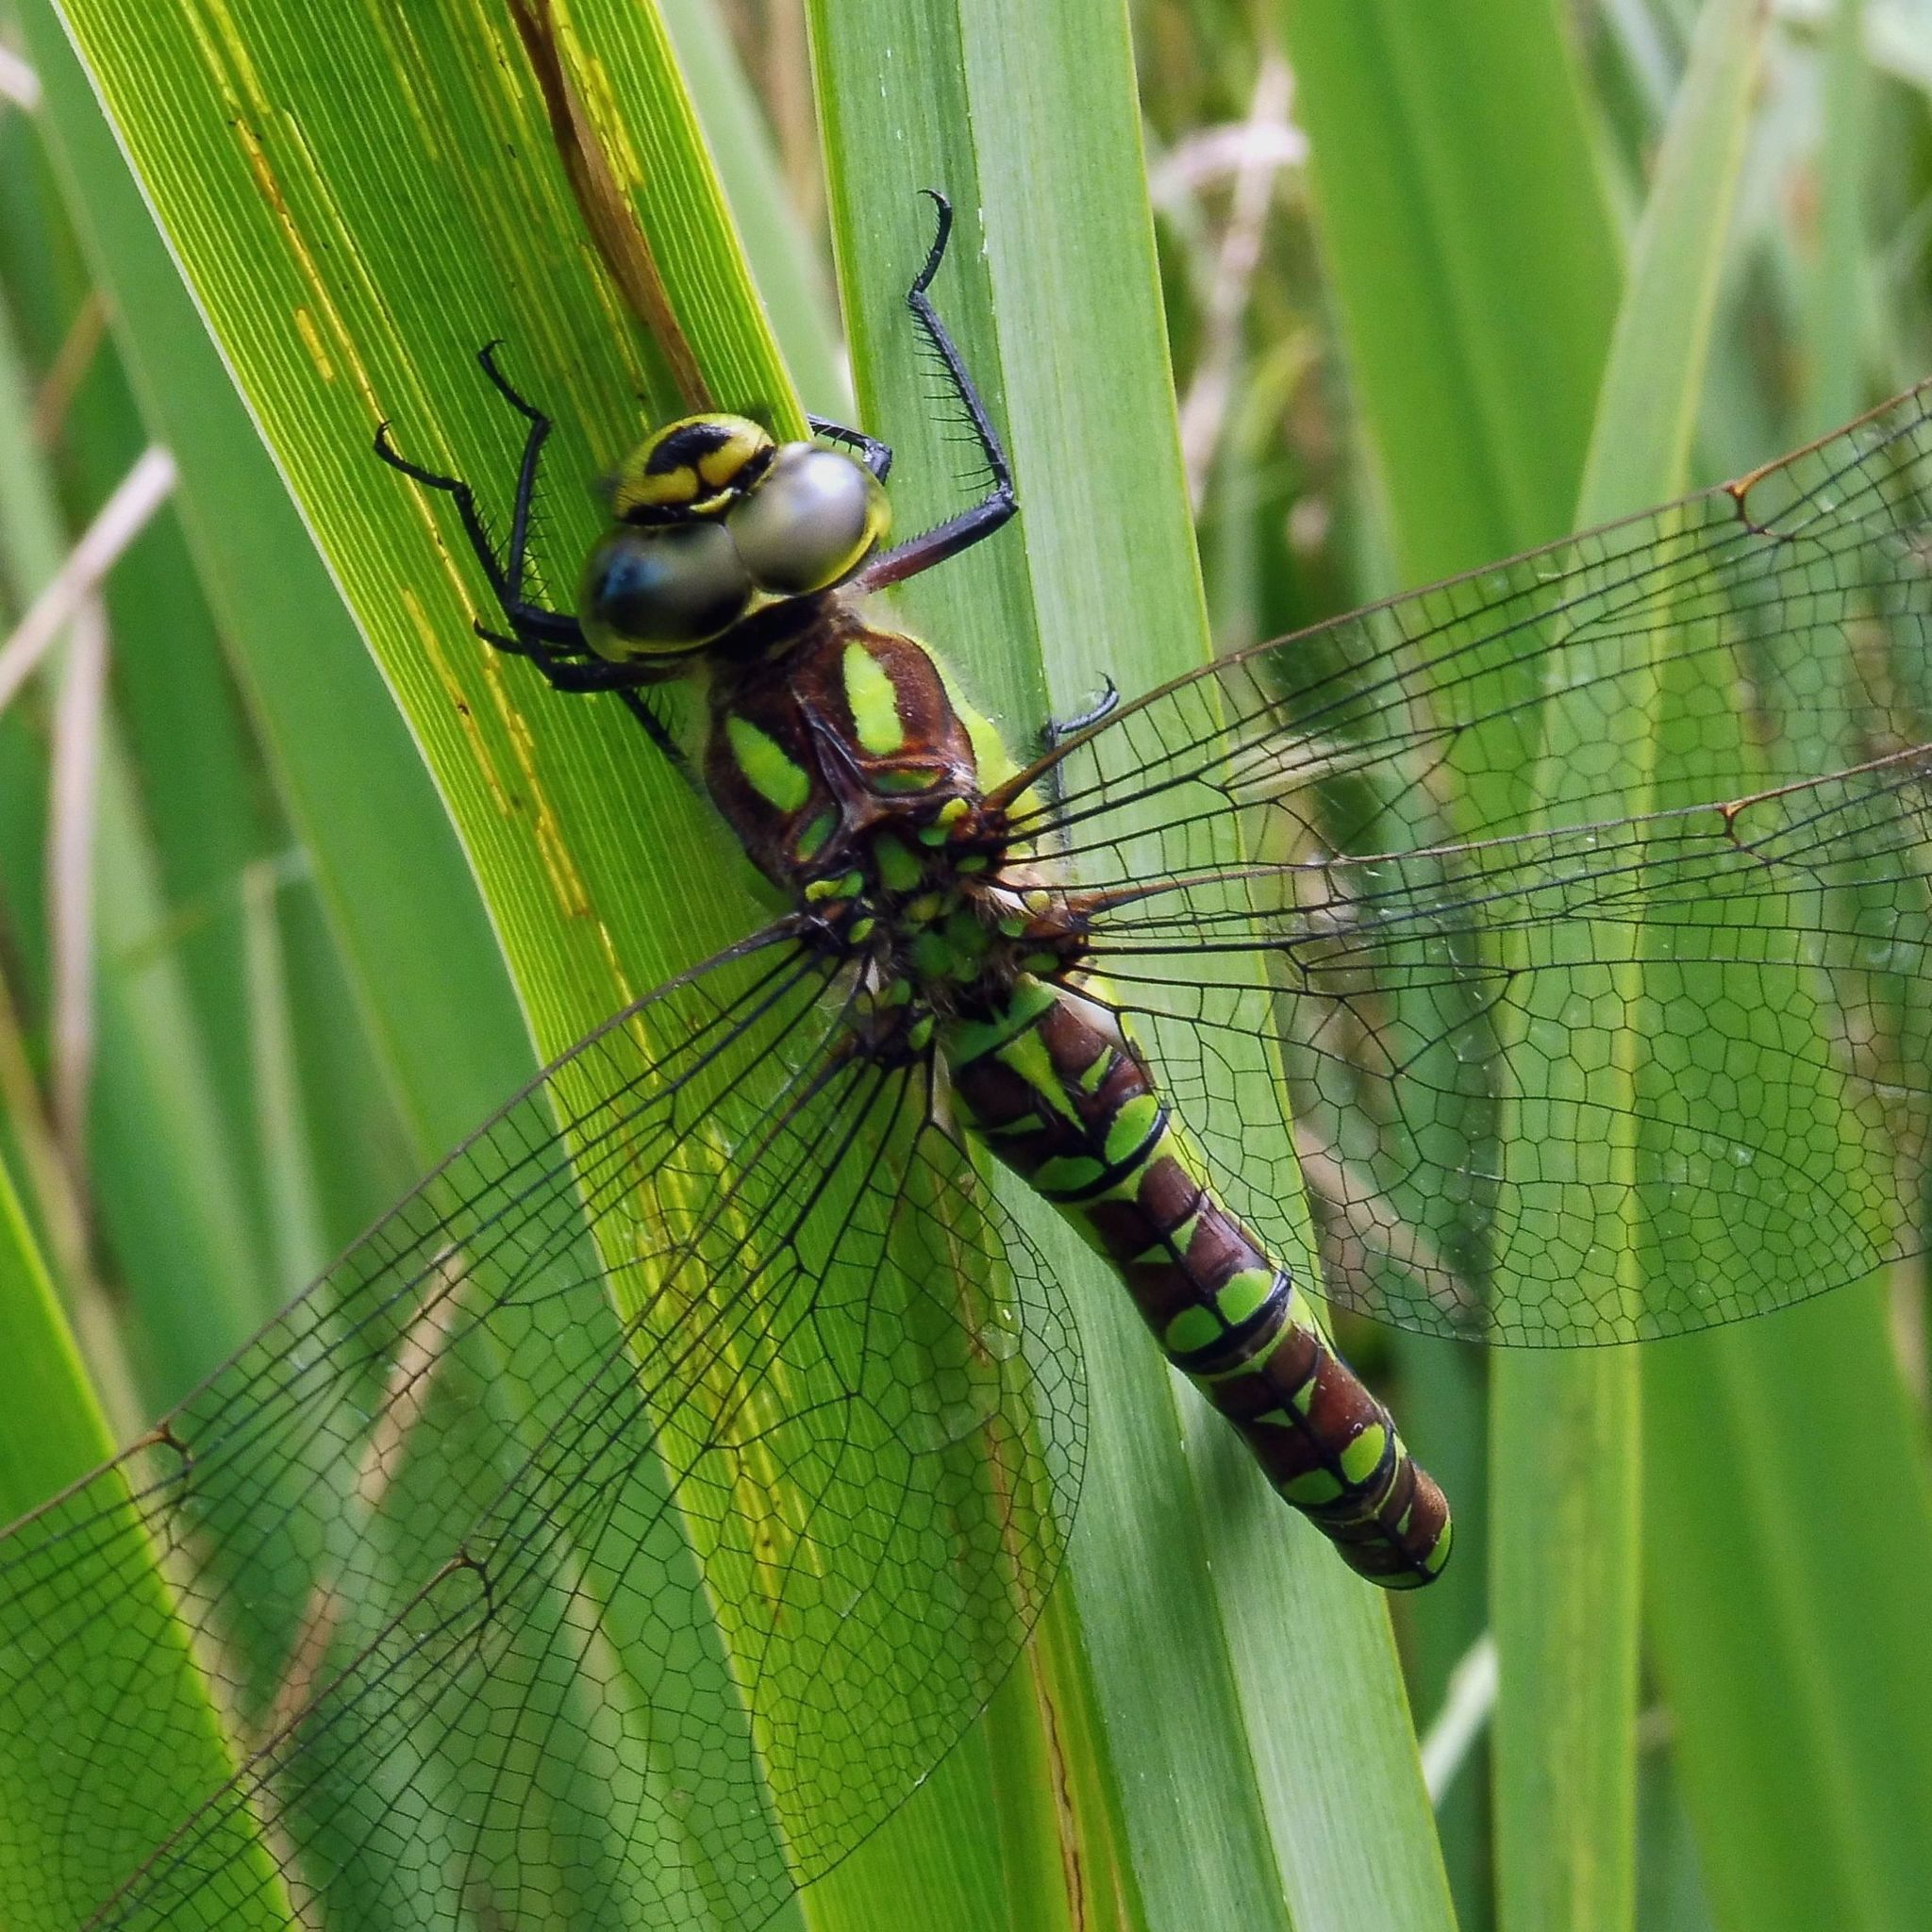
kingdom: Animalia
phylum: Arthropoda
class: Insecta
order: Odonata
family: Aeshnidae
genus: Aeshna
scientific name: Aeshna cyanea
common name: Southern hawker
